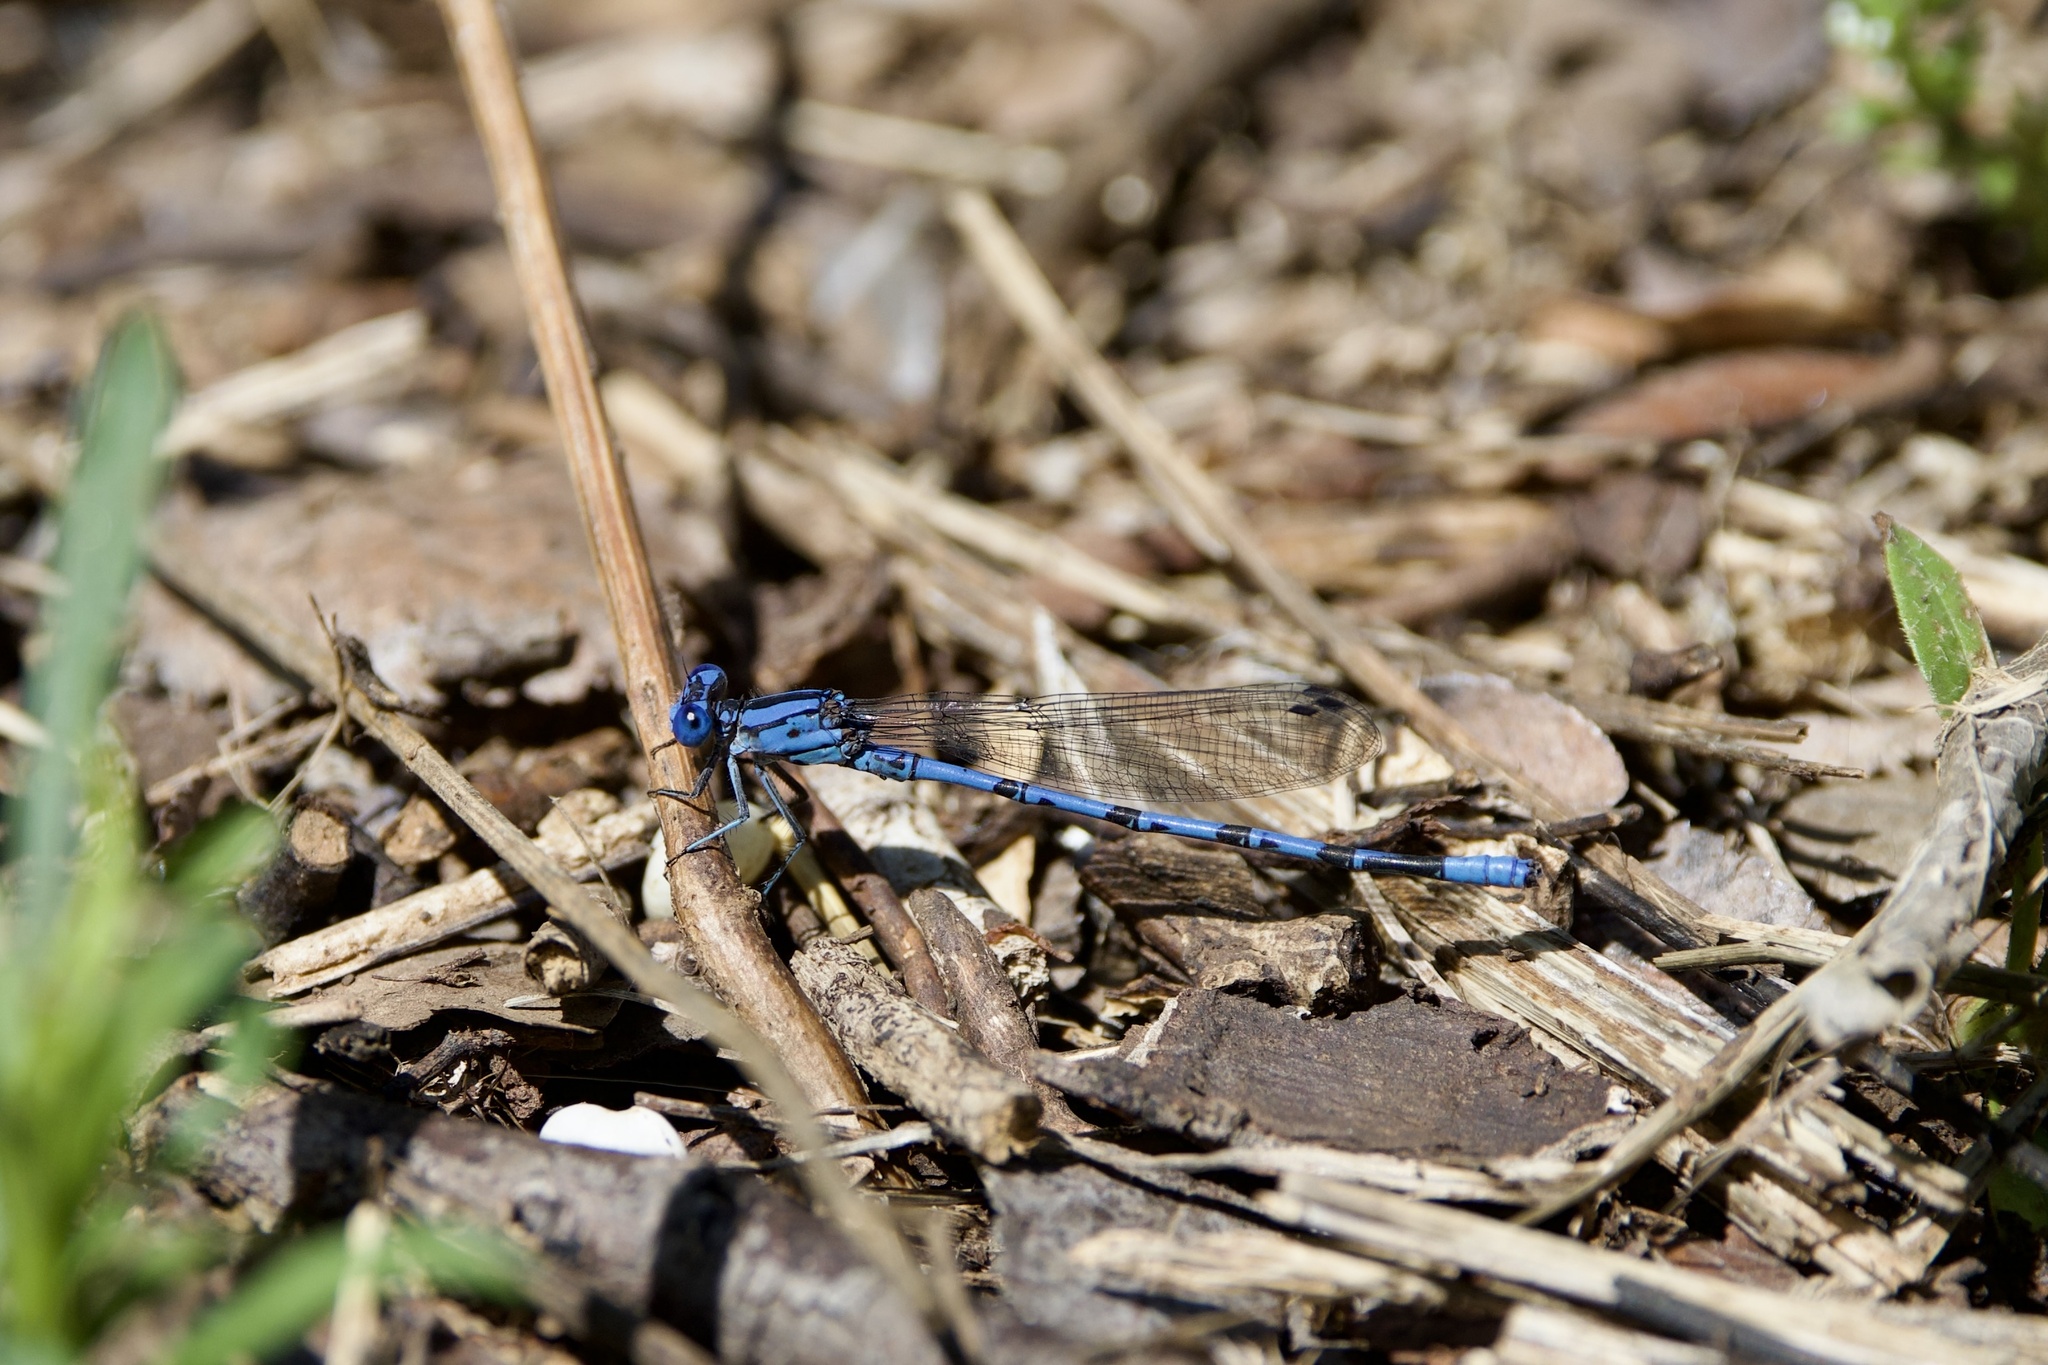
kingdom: Animalia
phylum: Arthropoda
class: Insecta
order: Odonata
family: Coenagrionidae
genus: Argia
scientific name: Argia funebris
